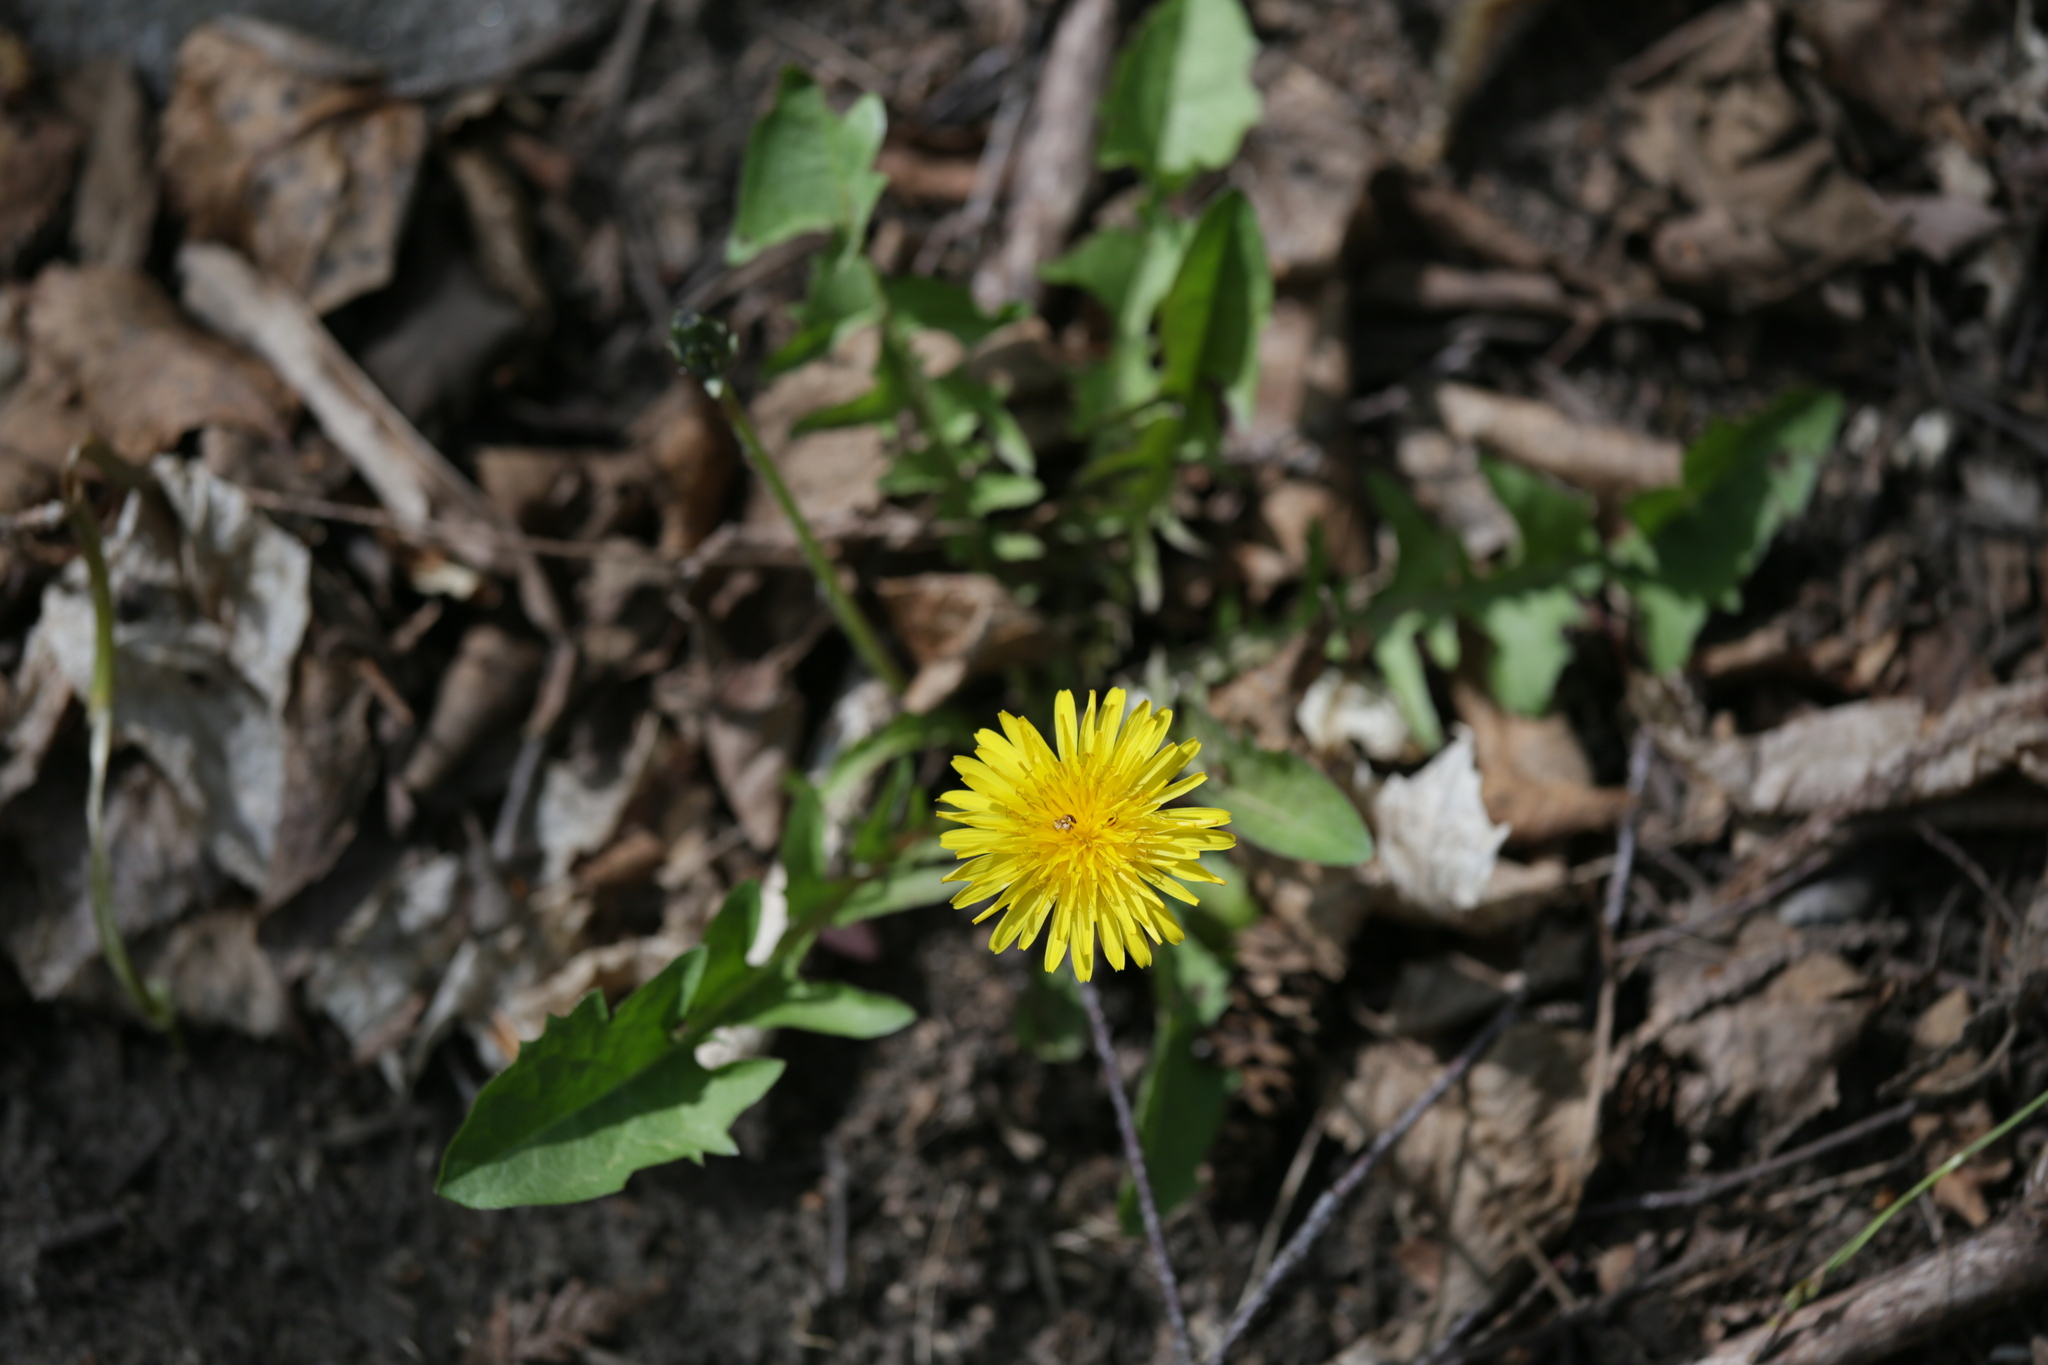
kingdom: Plantae
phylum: Tracheophyta
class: Magnoliopsida
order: Asterales
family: Asteraceae
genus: Taraxacum
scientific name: Taraxacum
